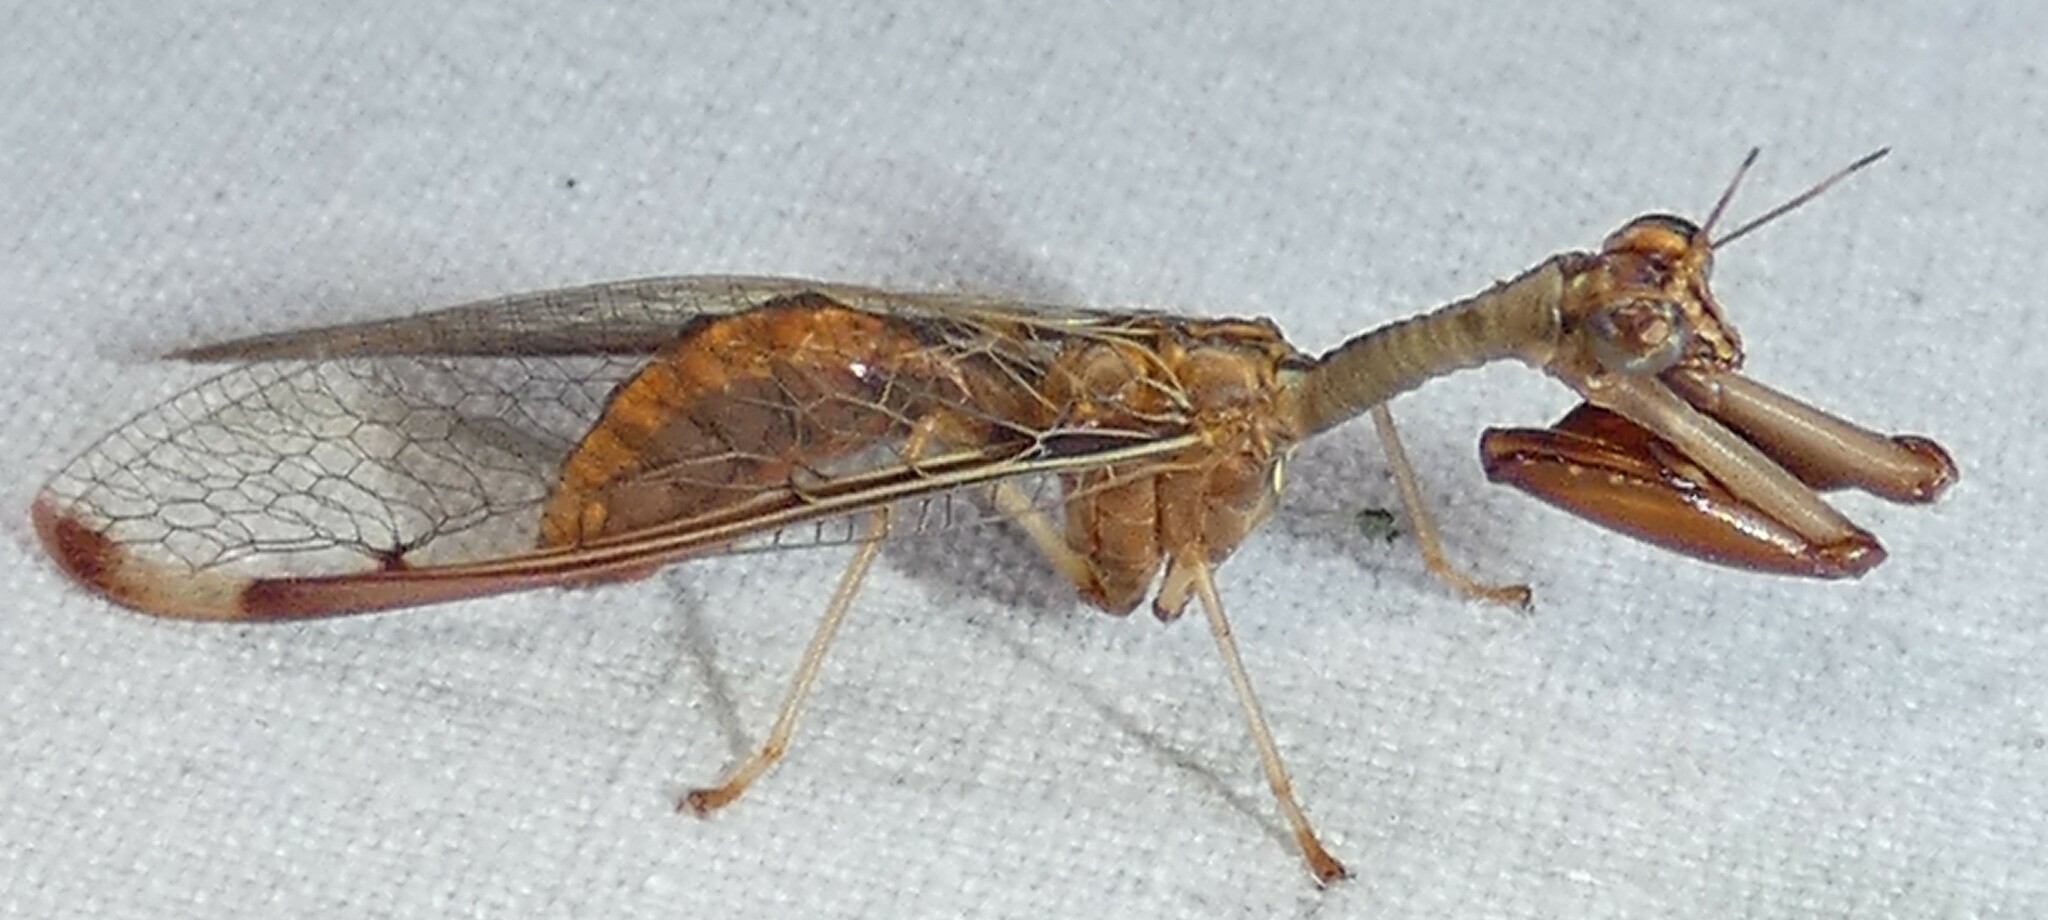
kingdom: Animalia
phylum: Arthropoda
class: Insecta
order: Neuroptera
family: Mantispidae
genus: Dicromantispa
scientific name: Dicromantispa interrupta
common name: Four-spotted mantidfly
